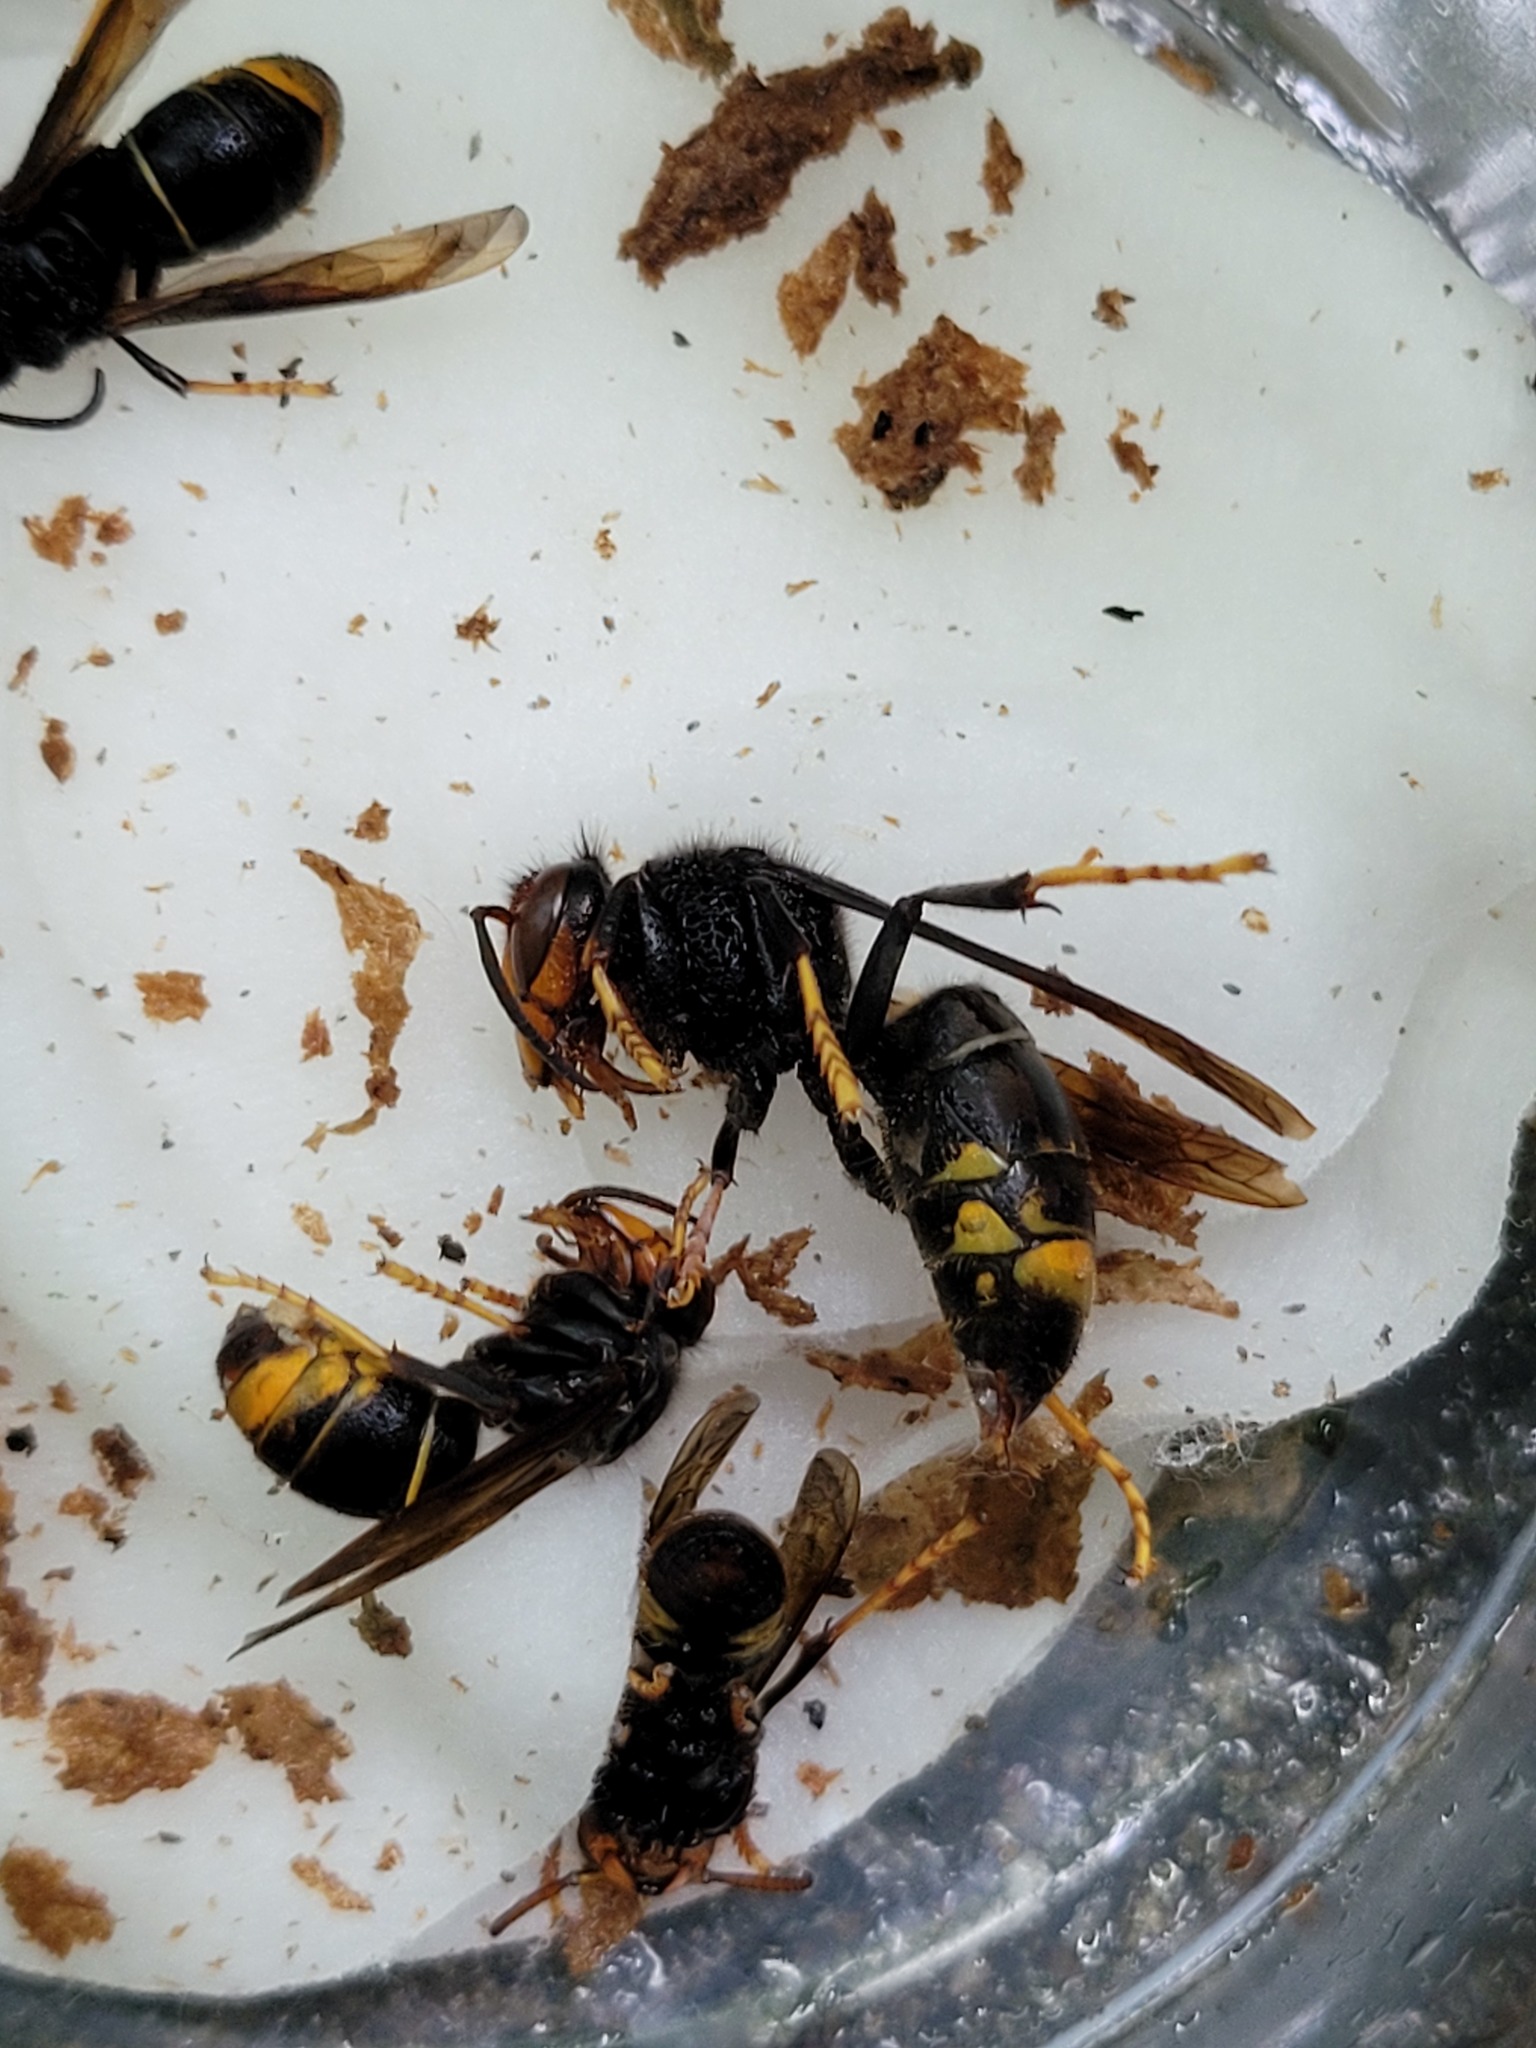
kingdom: Animalia
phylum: Arthropoda
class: Insecta
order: Hymenoptera
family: Vespidae
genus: Vespa
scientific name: Vespa velutina
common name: Asian hornet
